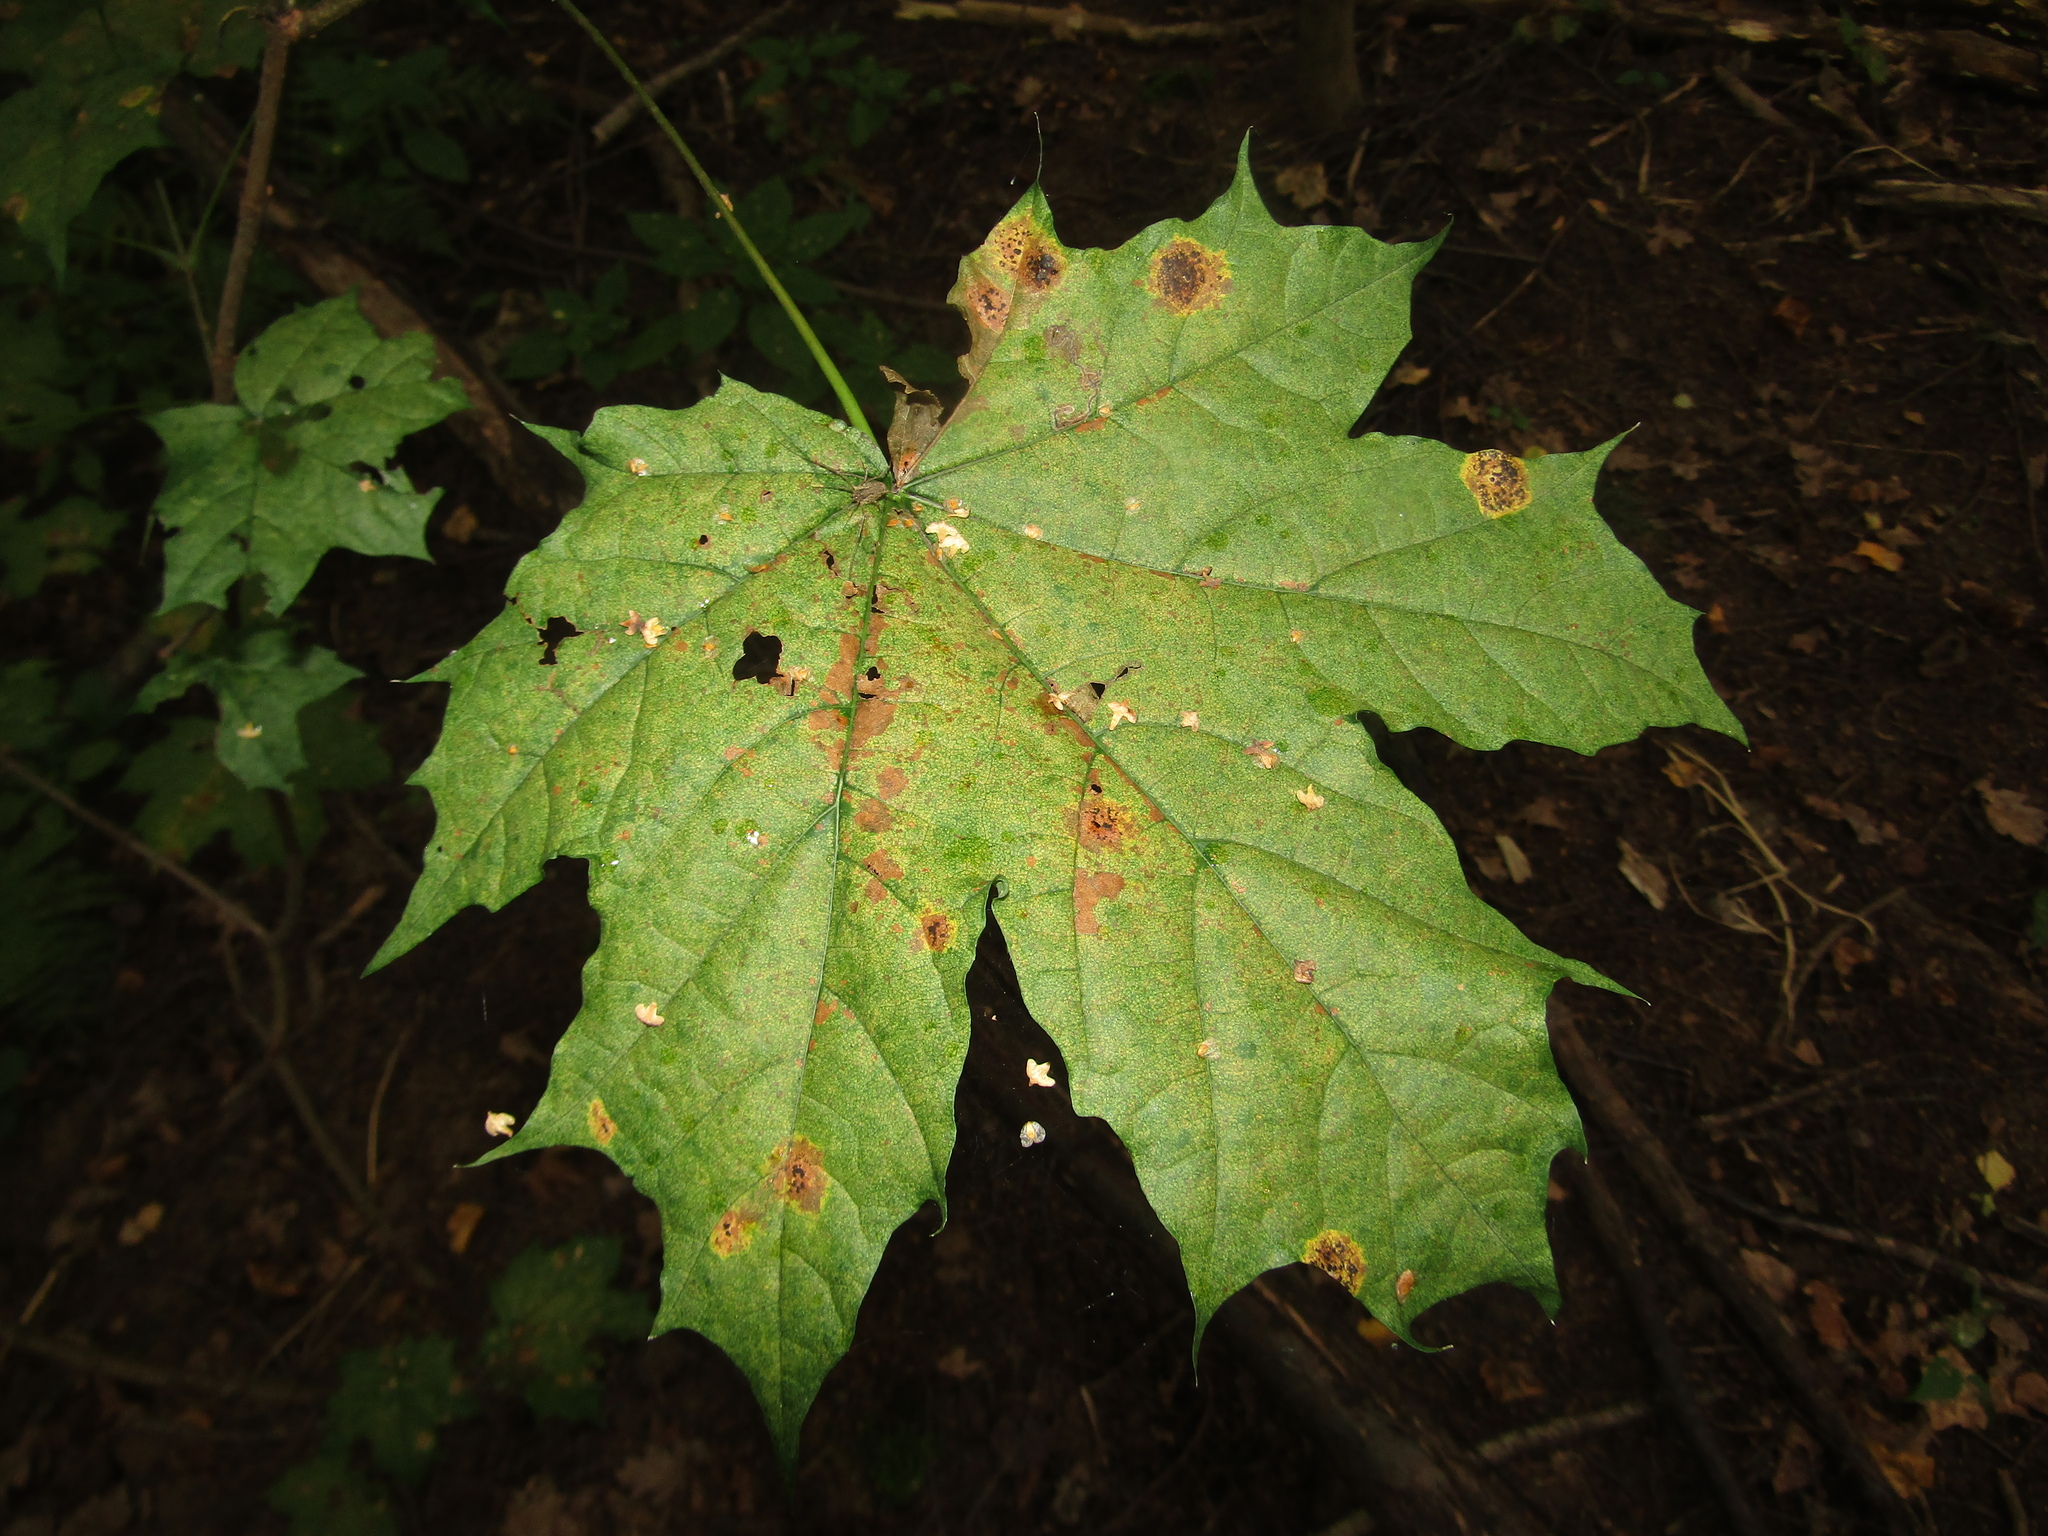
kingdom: Fungi
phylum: Ascomycota
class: Leotiomycetes
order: Rhytismatales
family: Rhytismataceae
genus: Rhytisma
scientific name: Rhytisma acerinum
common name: European tar spot
